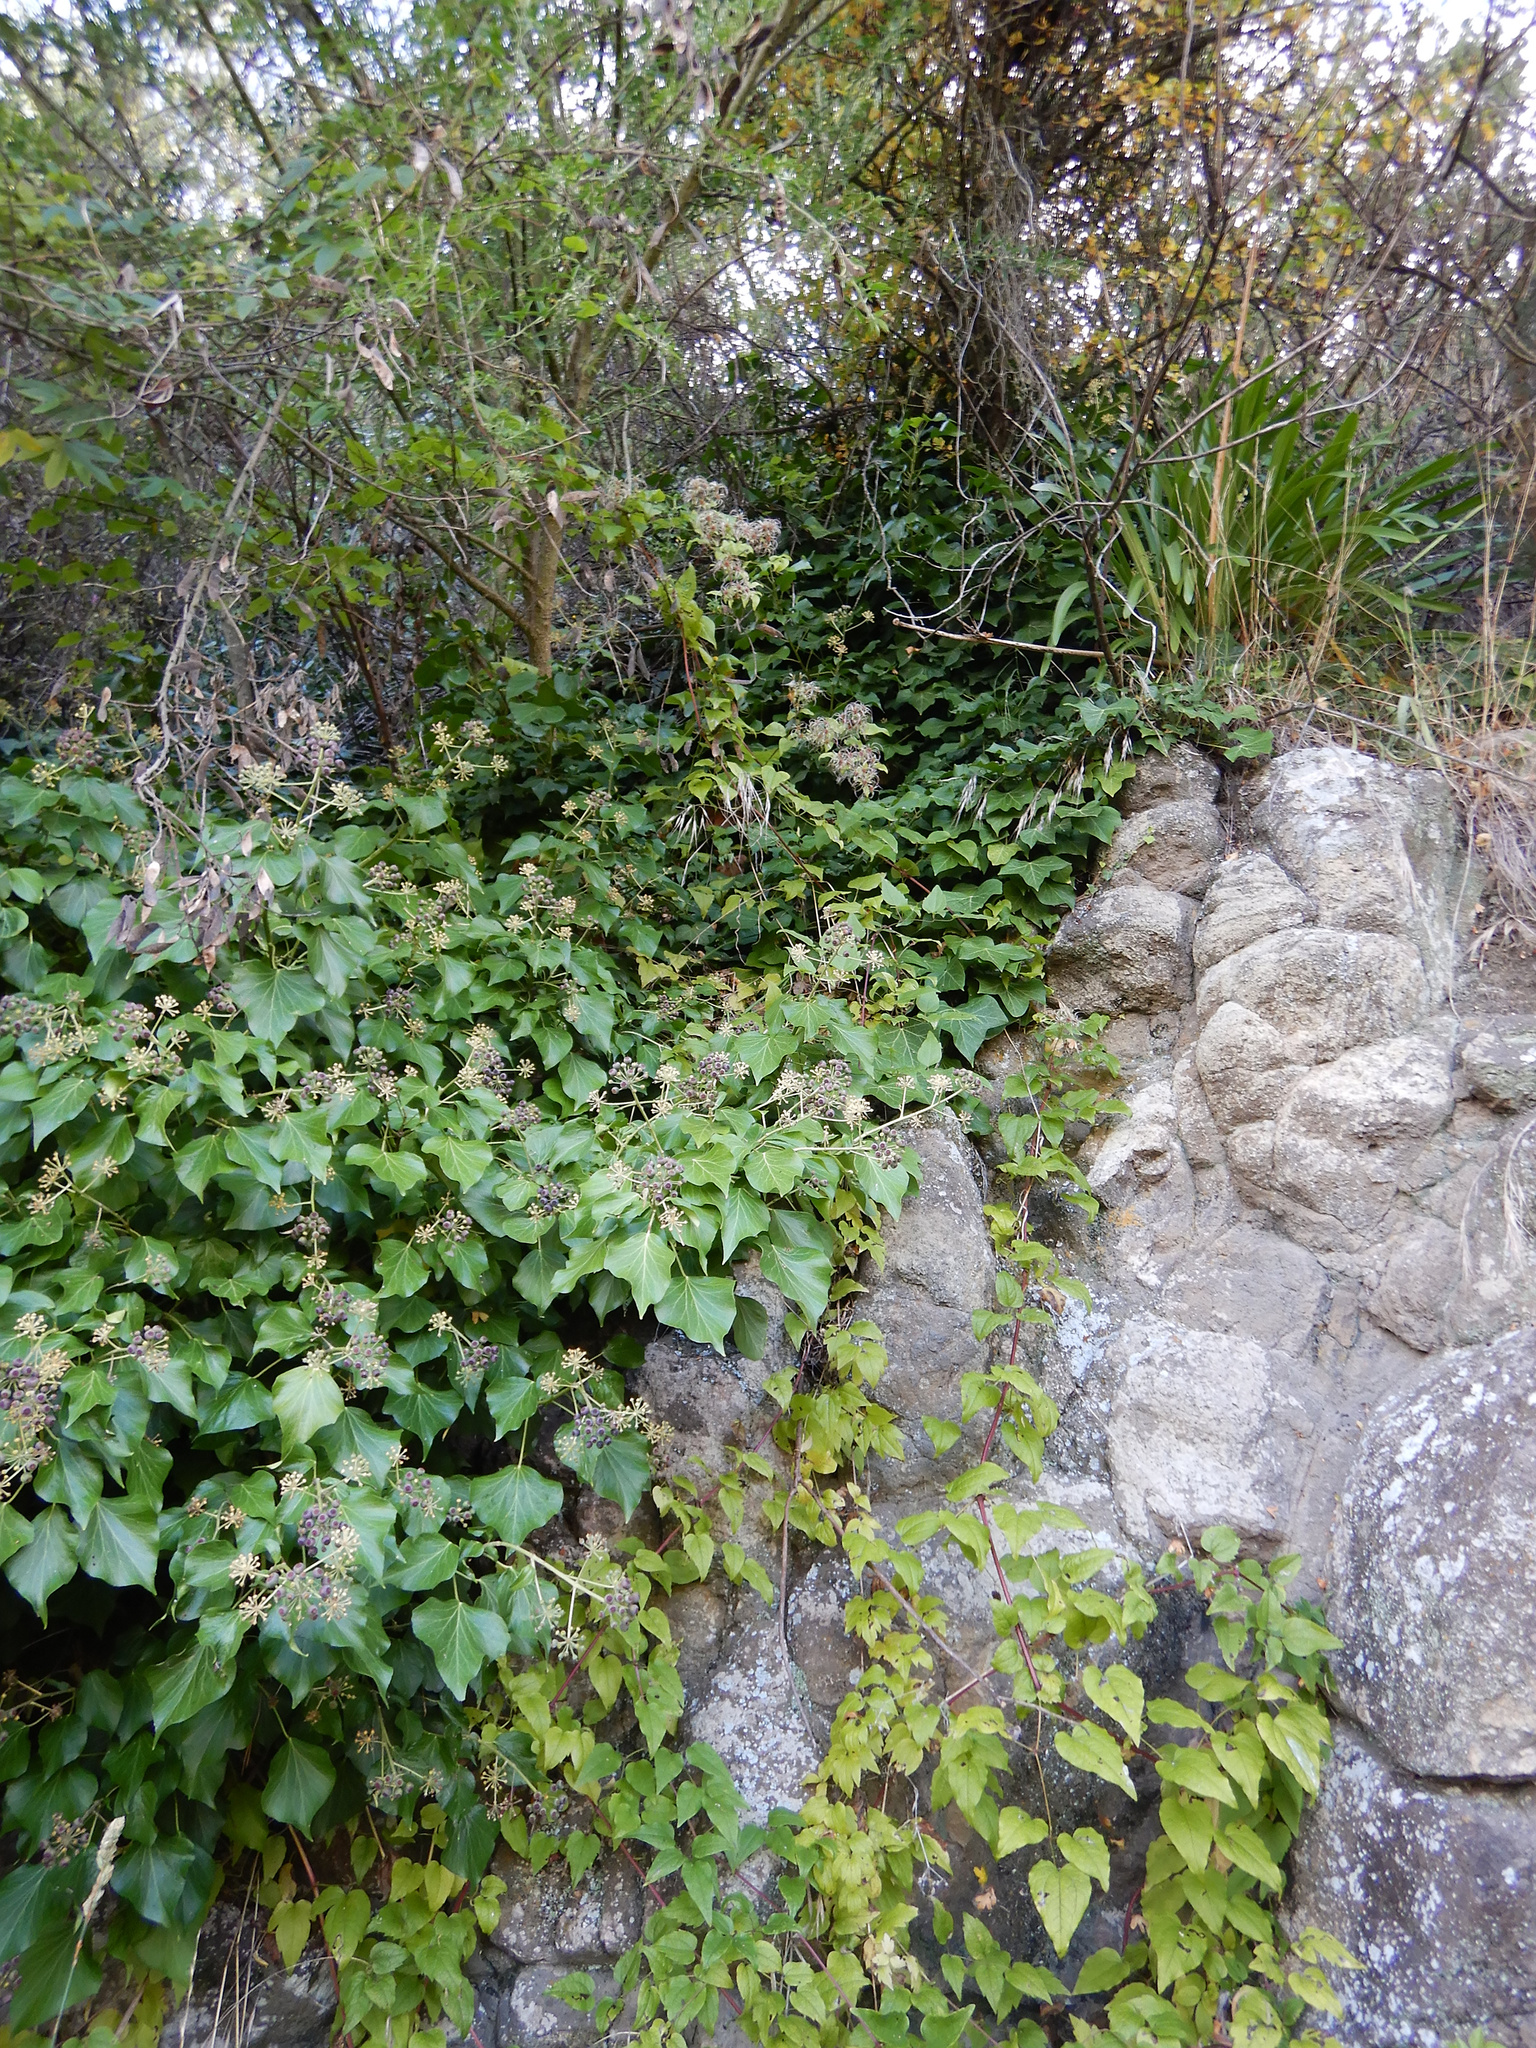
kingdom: Plantae
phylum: Tracheophyta
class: Magnoliopsida
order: Apiales
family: Araliaceae
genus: Hedera
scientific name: Hedera helix
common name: Ivy
